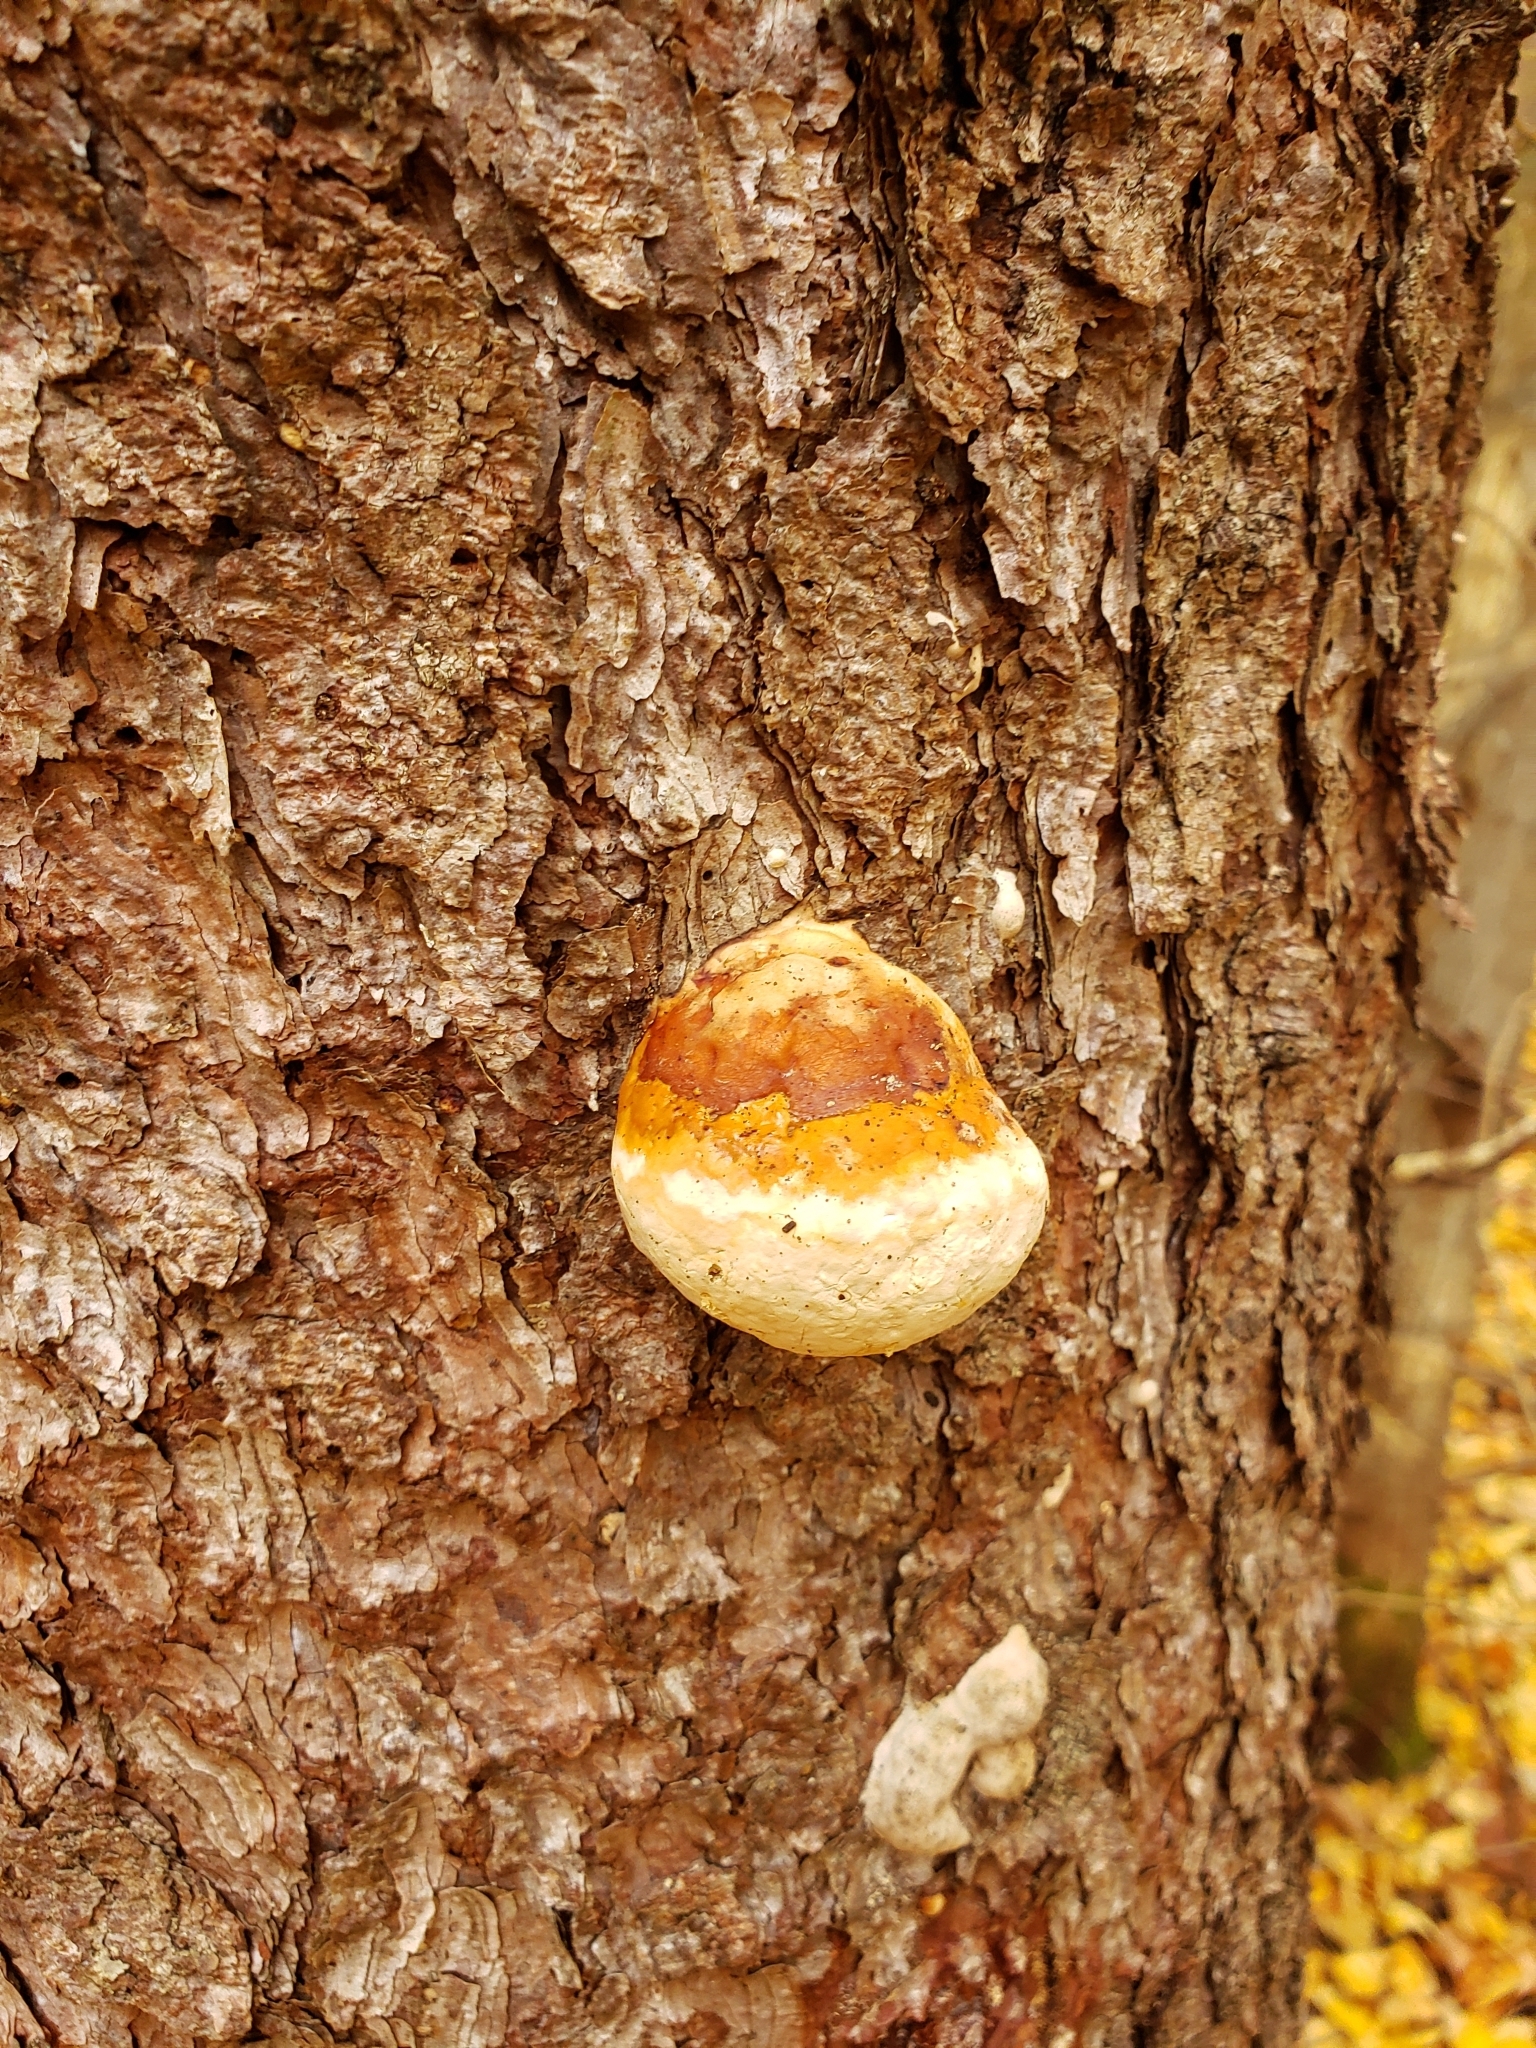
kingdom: Fungi
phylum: Basidiomycota
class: Agaricomycetes
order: Polyporales
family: Fomitopsidaceae
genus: Fomitopsis
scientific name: Fomitopsis mounceae
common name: Northern red belt
